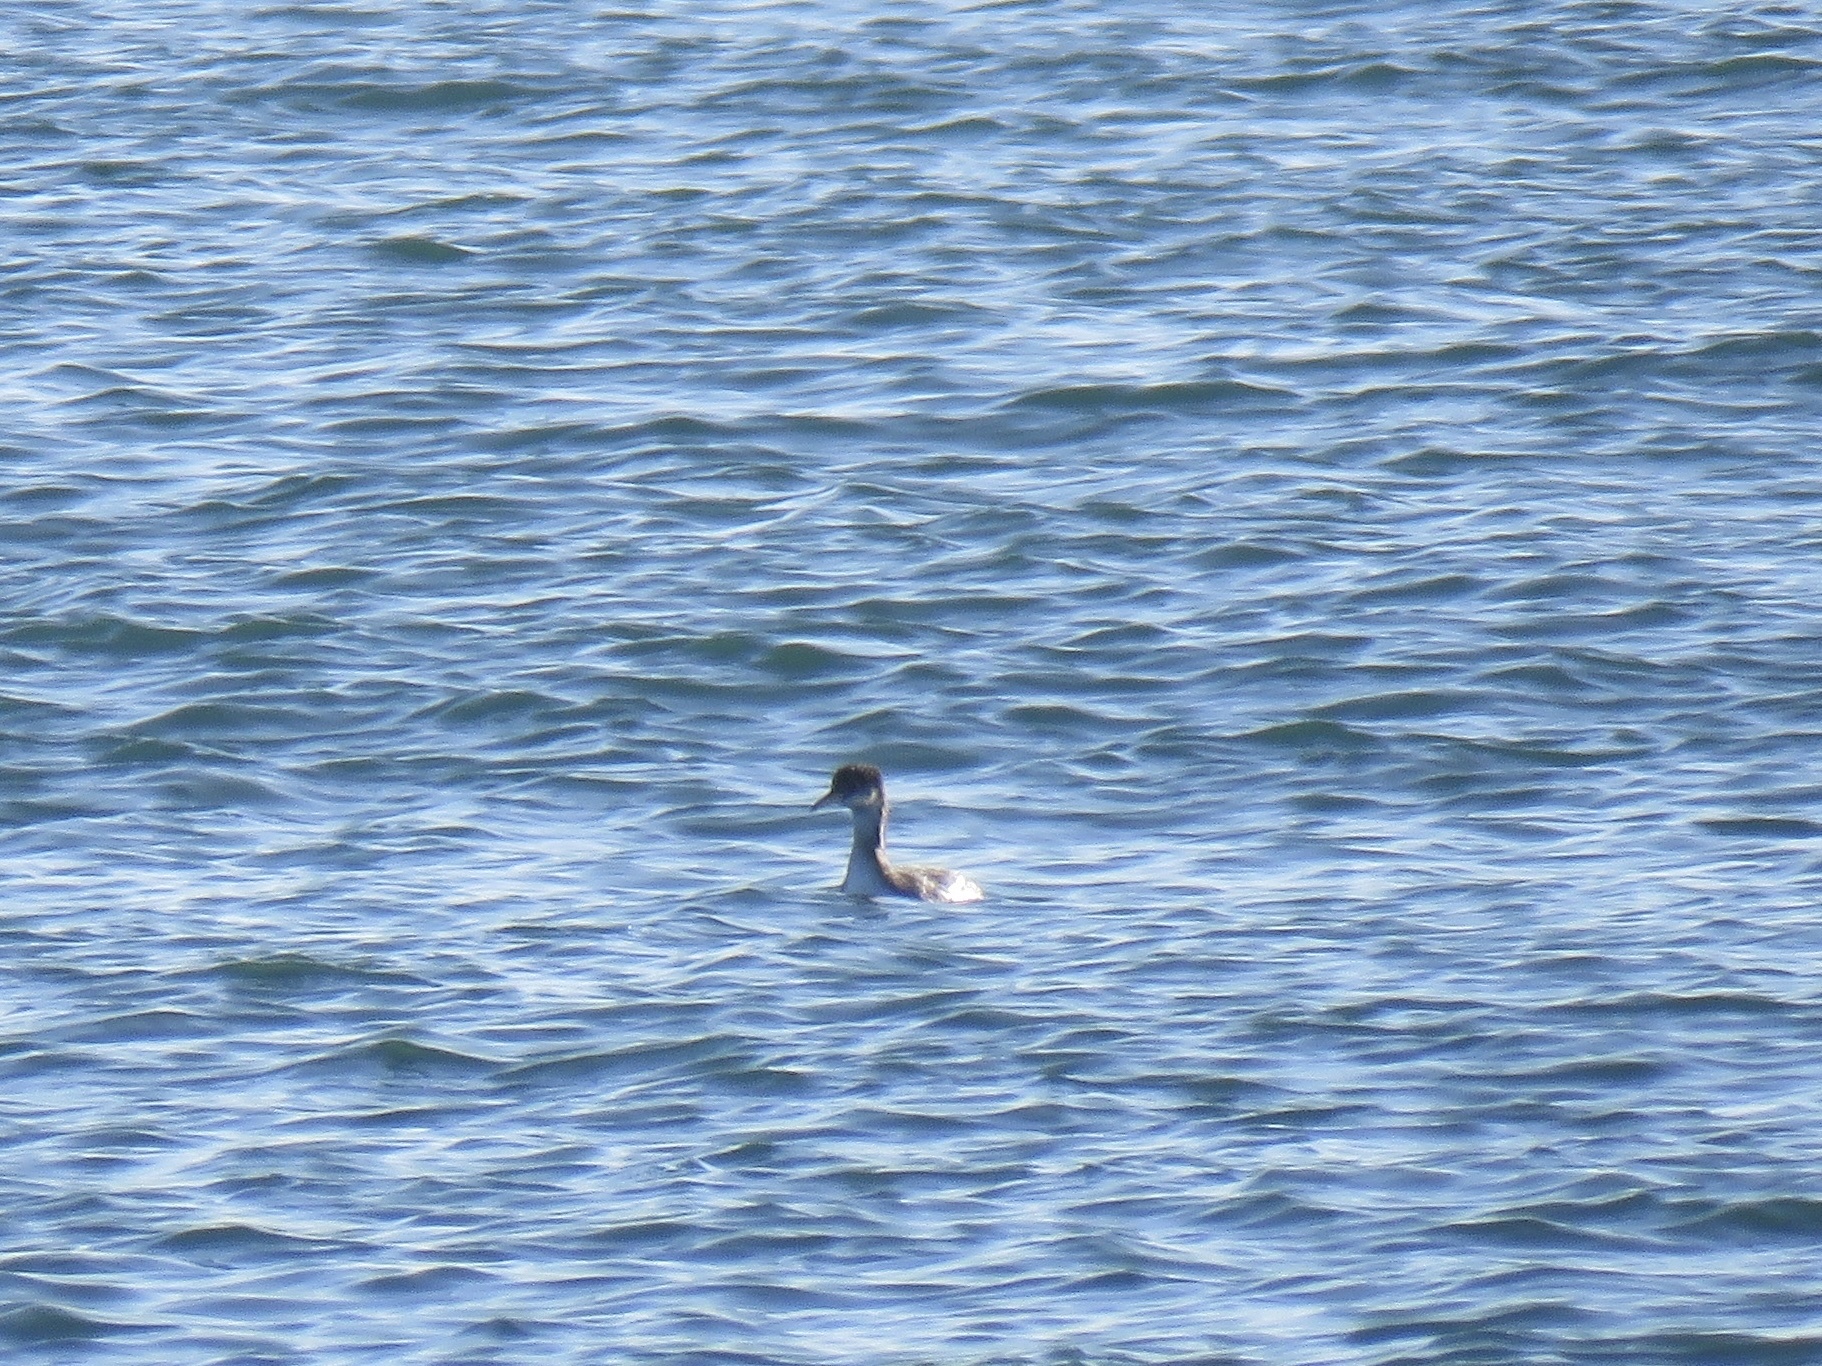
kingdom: Animalia
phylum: Chordata
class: Aves
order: Podicipediformes
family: Podicipedidae
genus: Podiceps
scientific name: Podiceps grisegena
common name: Red-necked grebe
